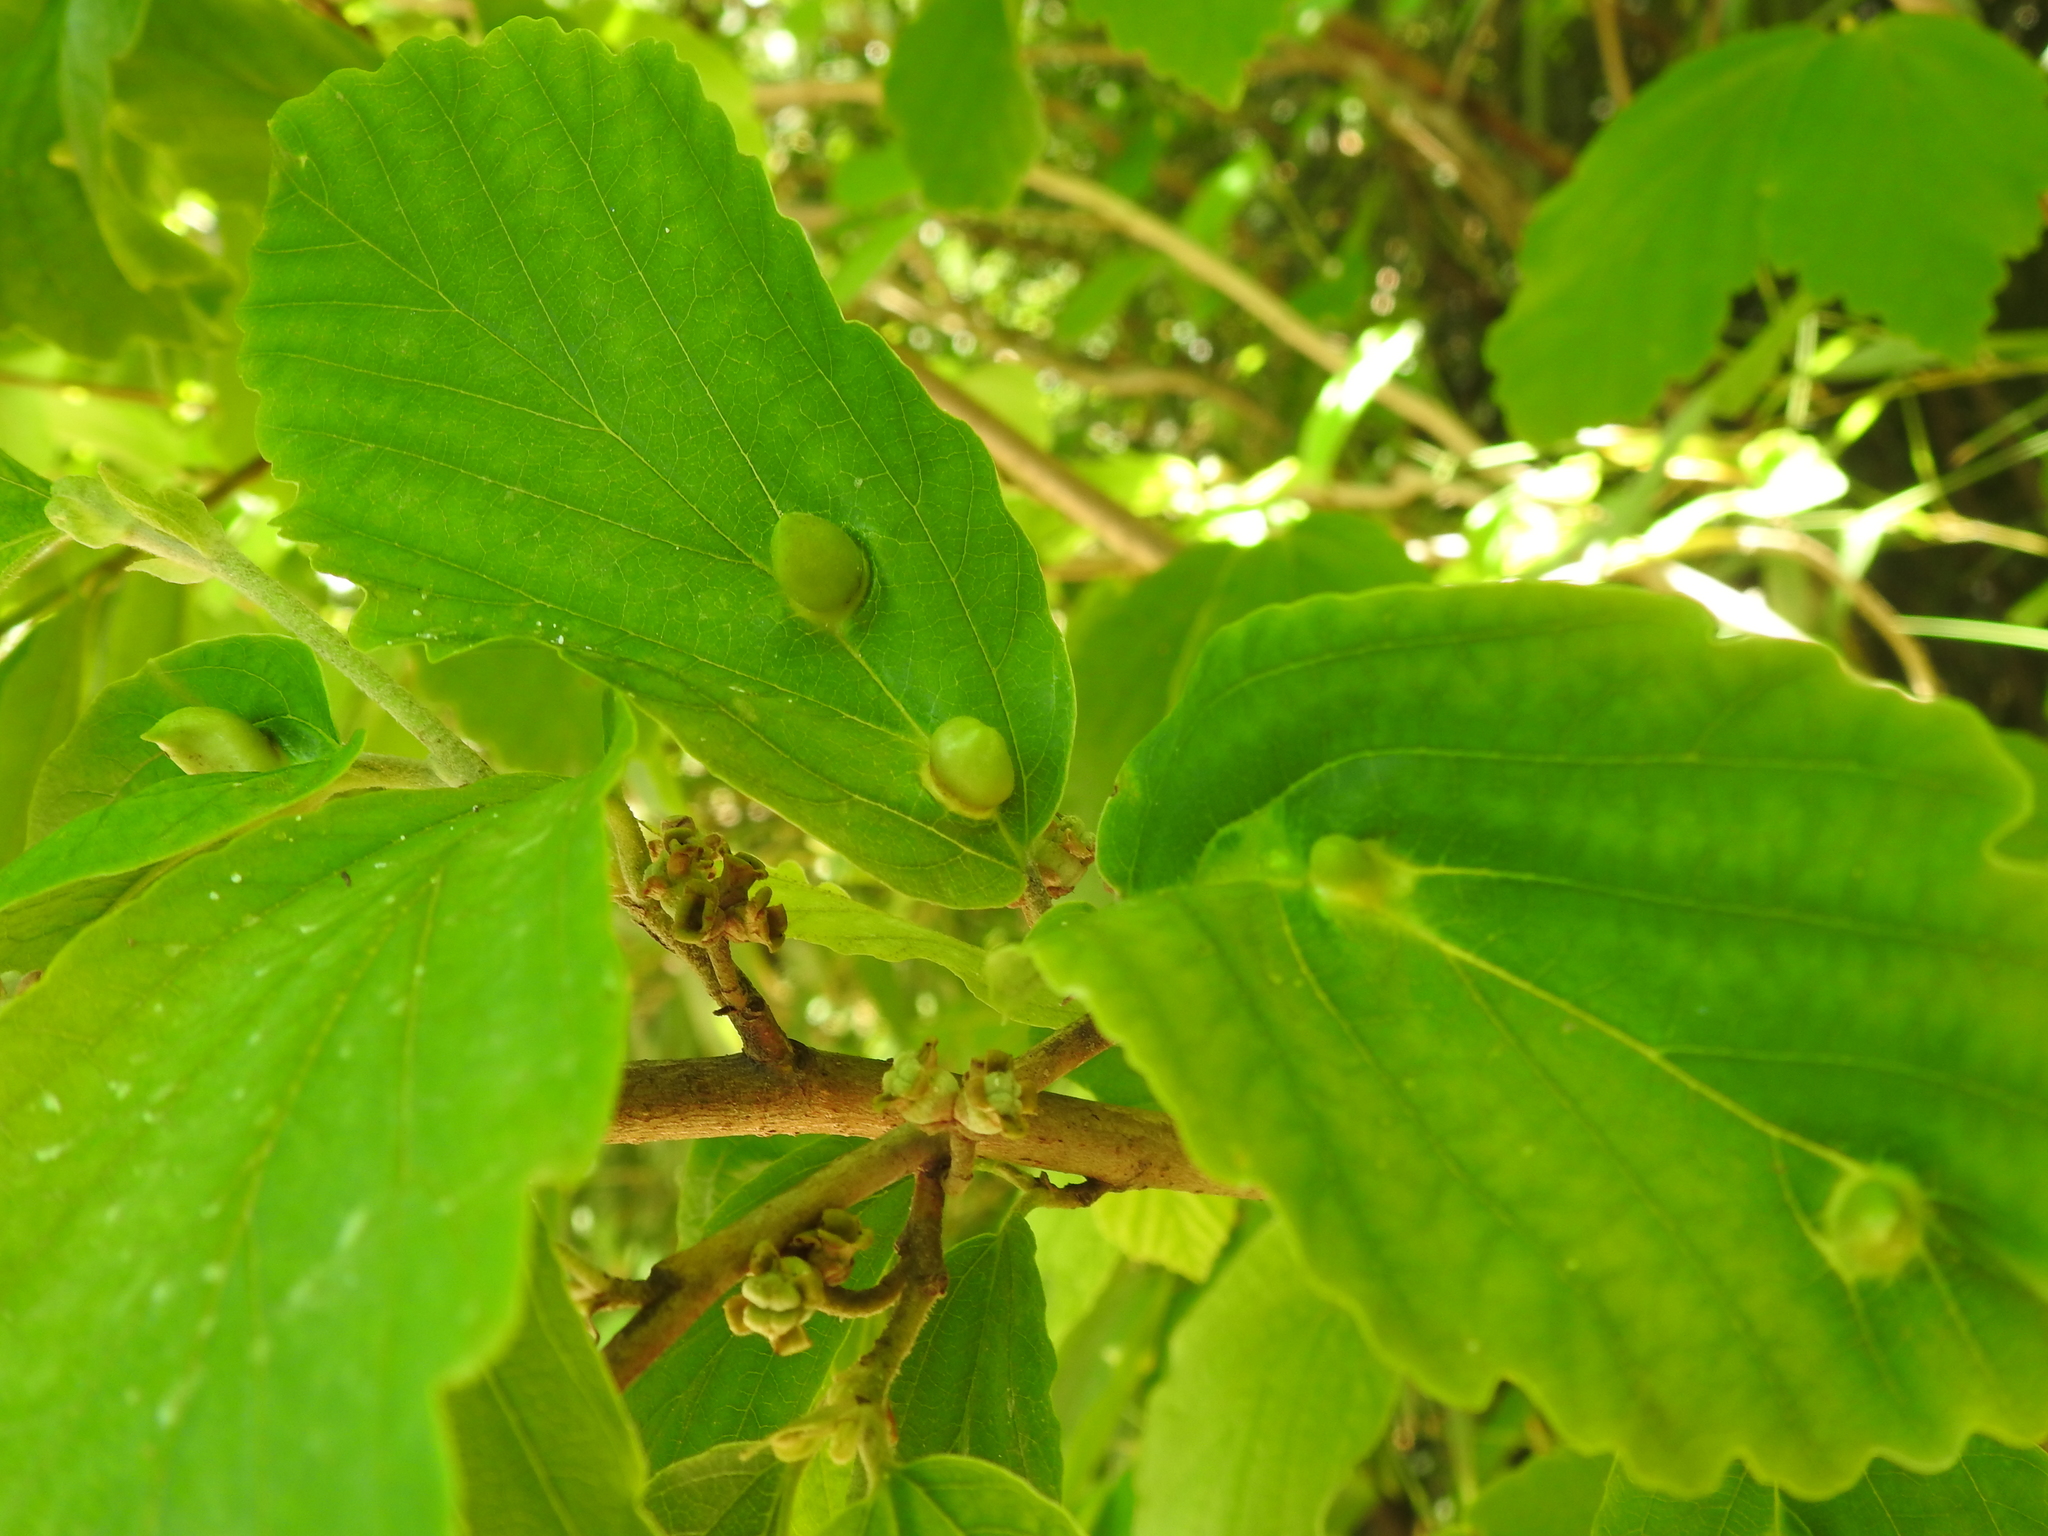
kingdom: Animalia
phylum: Arthropoda
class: Insecta
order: Hemiptera
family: Aphididae
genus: Hormaphis
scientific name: Hormaphis hamamelidis
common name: Witch-hazel cone gall aphid
